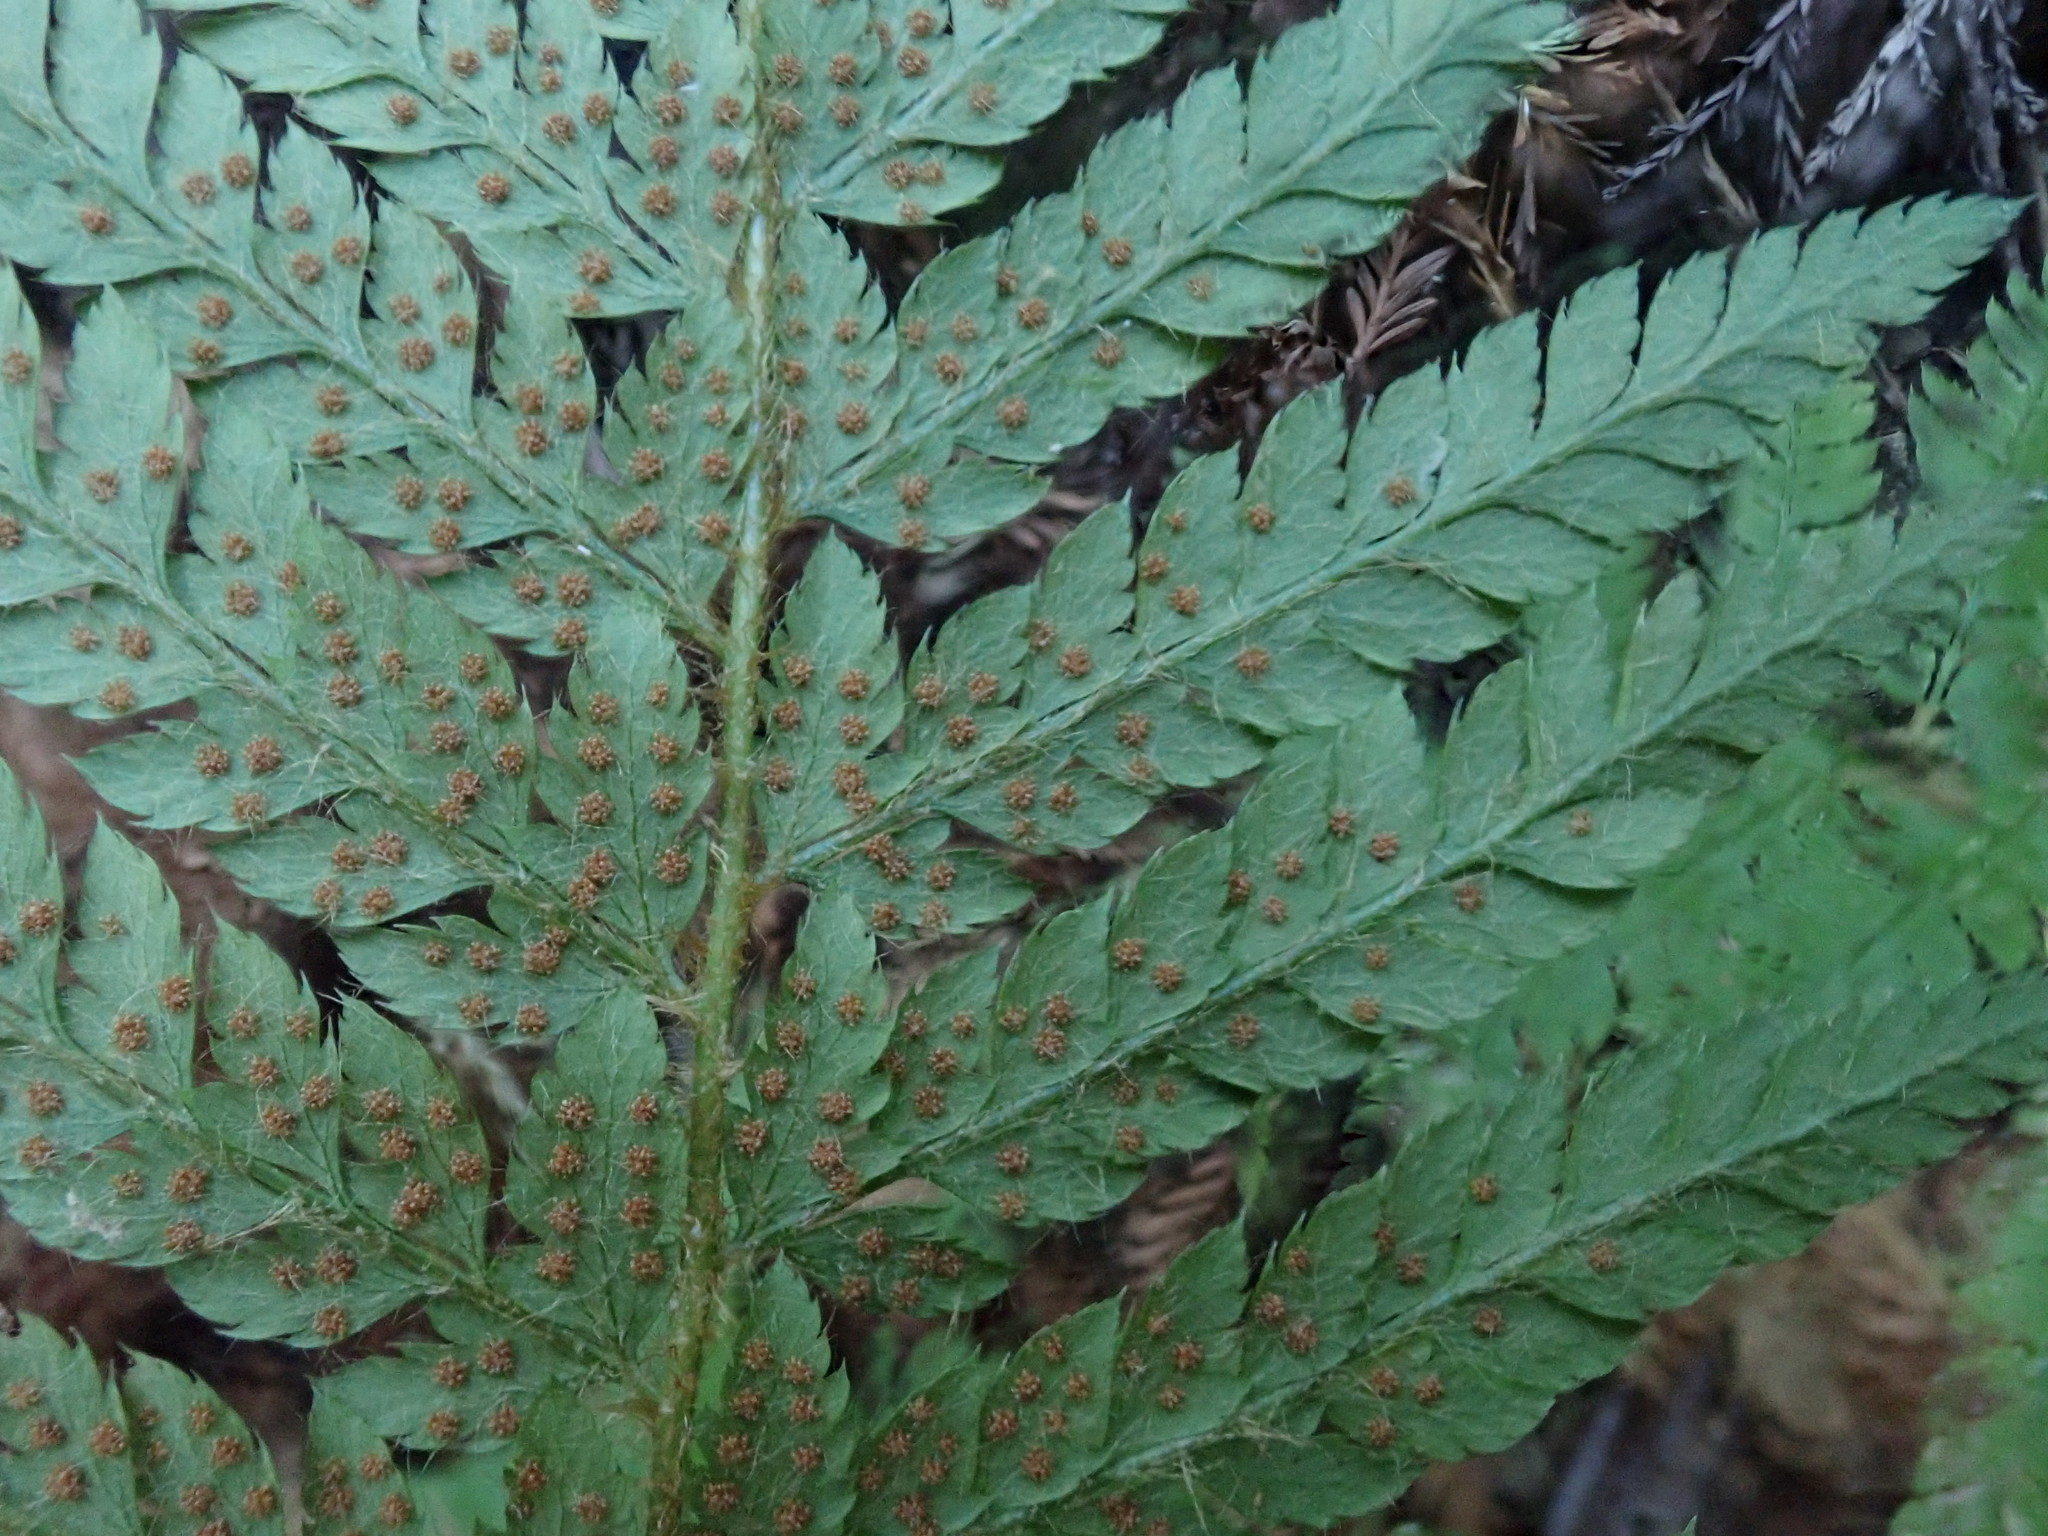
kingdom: Plantae
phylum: Tracheophyta
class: Polypodiopsida
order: Polypodiales
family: Dryopteridaceae
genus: Polystichum
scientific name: Polystichum dudleyi
